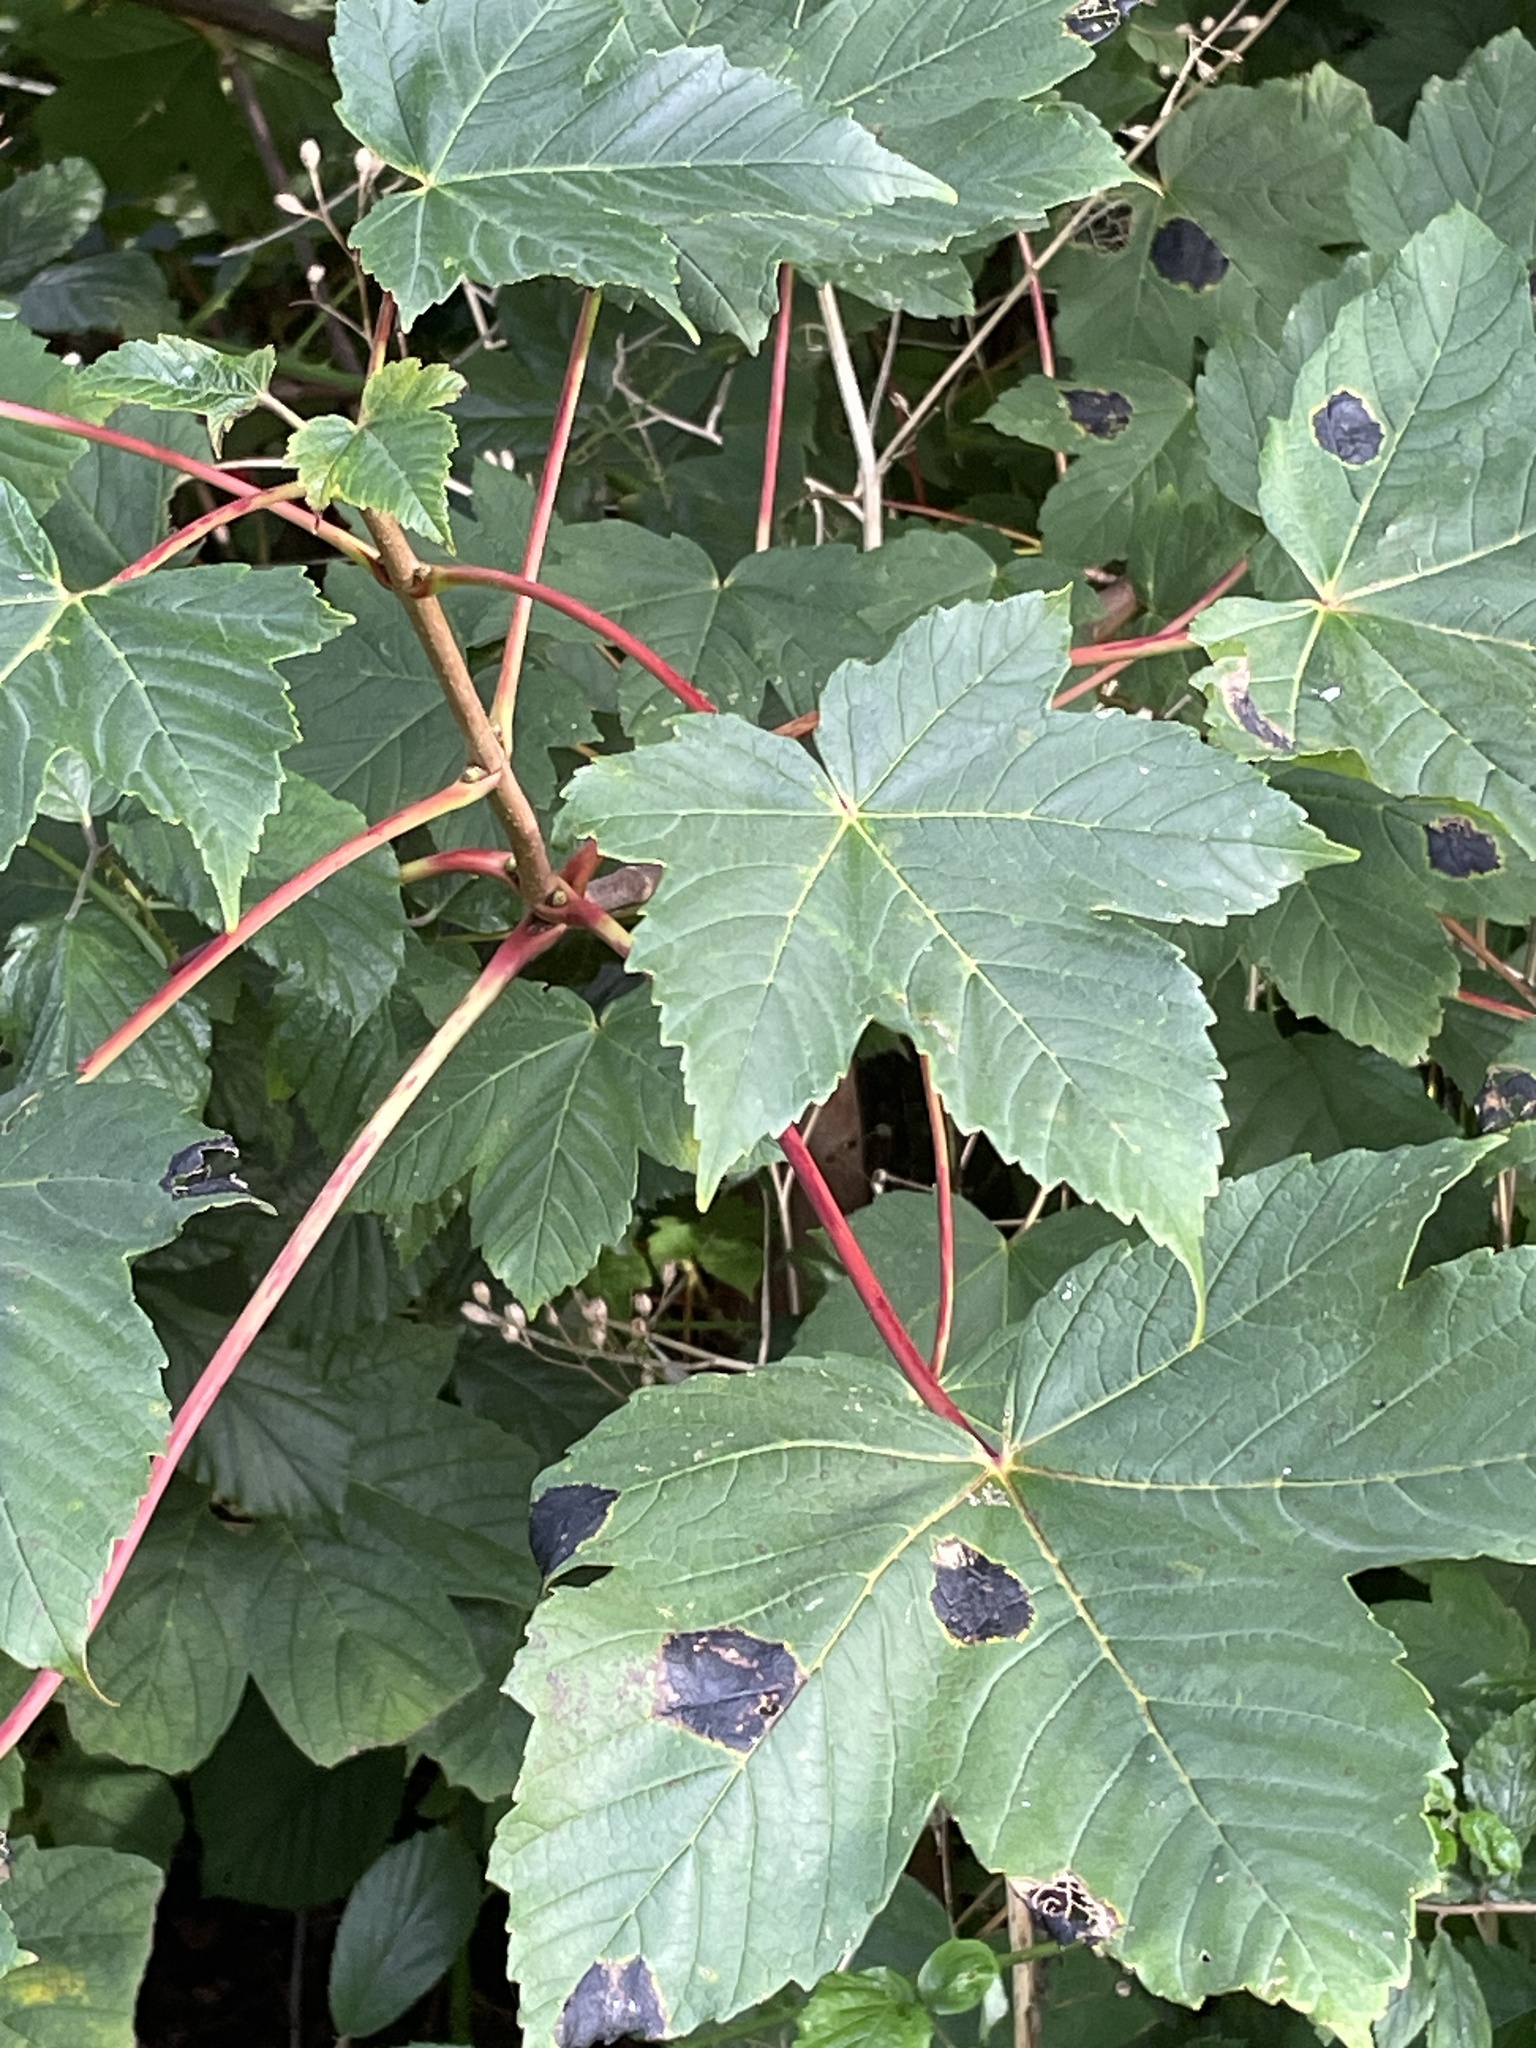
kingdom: Plantae
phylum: Tracheophyta
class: Magnoliopsida
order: Sapindales
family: Sapindaceae
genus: Acer
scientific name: Acer pseudoplatanus
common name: Sycamore
